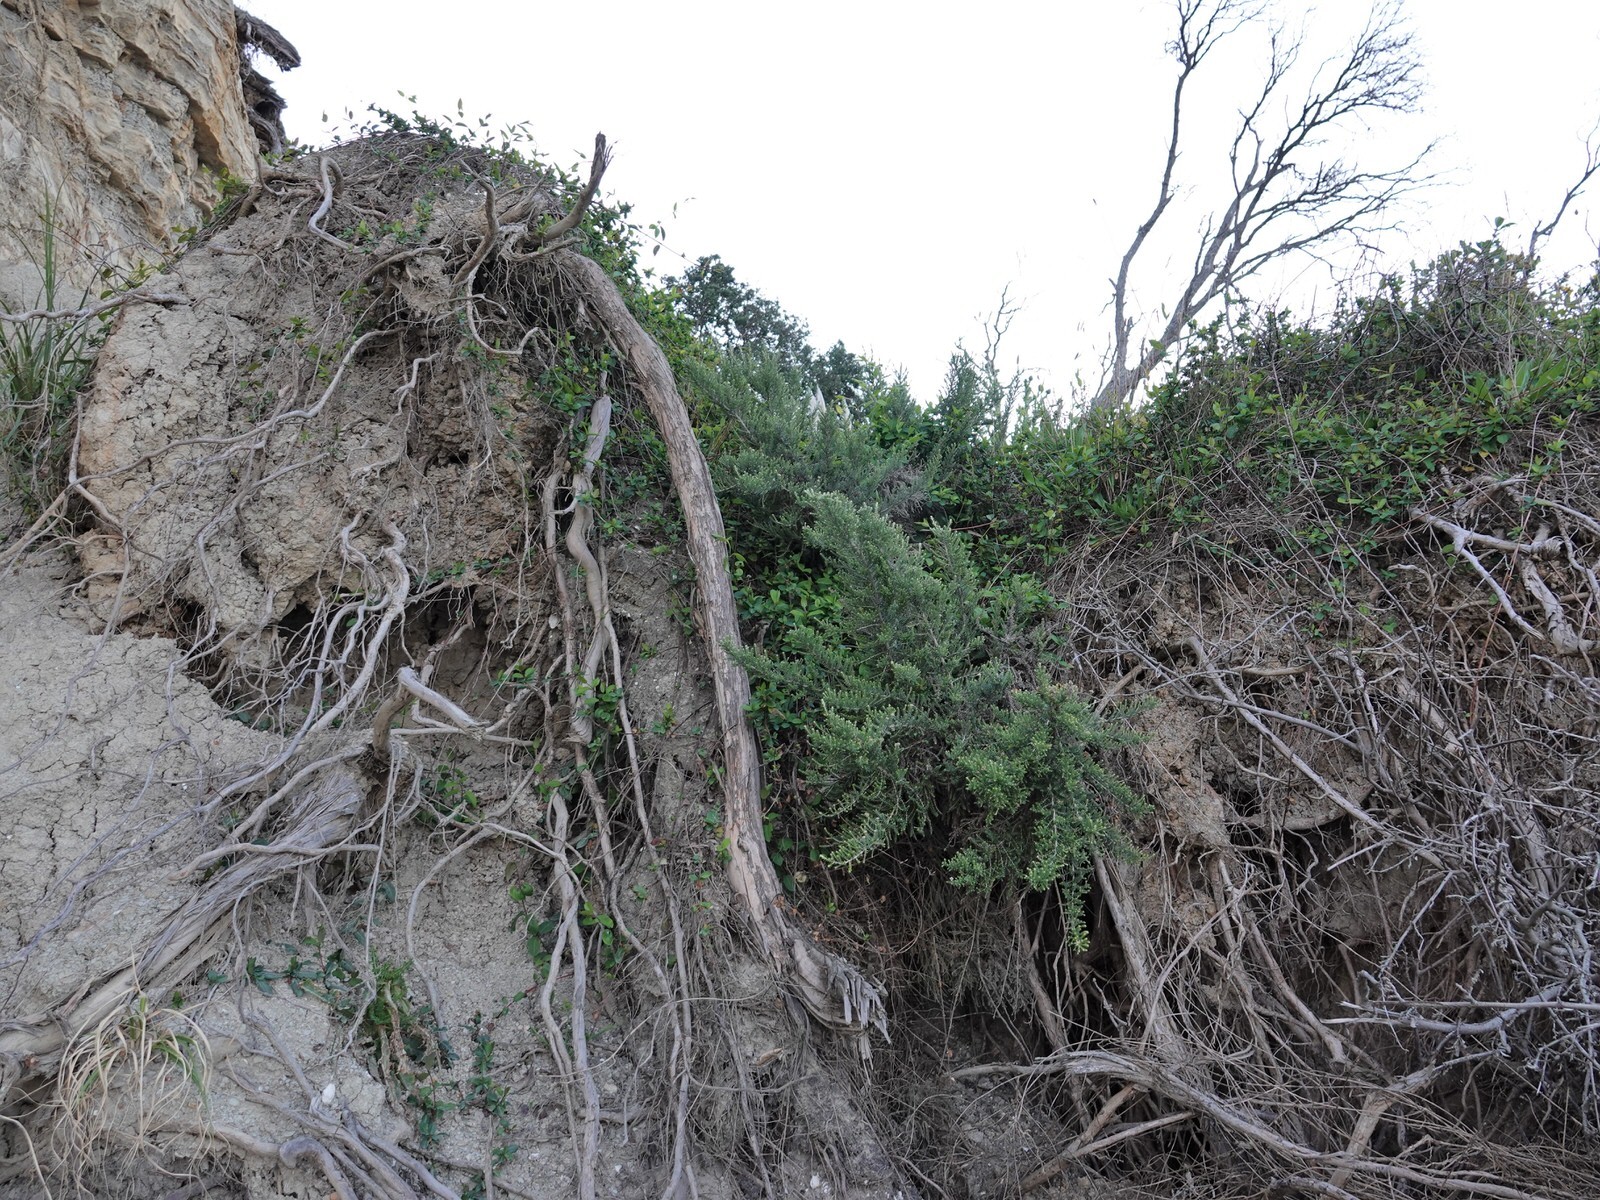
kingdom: Plantae
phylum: Tracheophyta
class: Magnoliopsida
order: Asterales
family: Asteraceae
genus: Ozothamnus
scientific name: Ozothamnus leptophyllus
